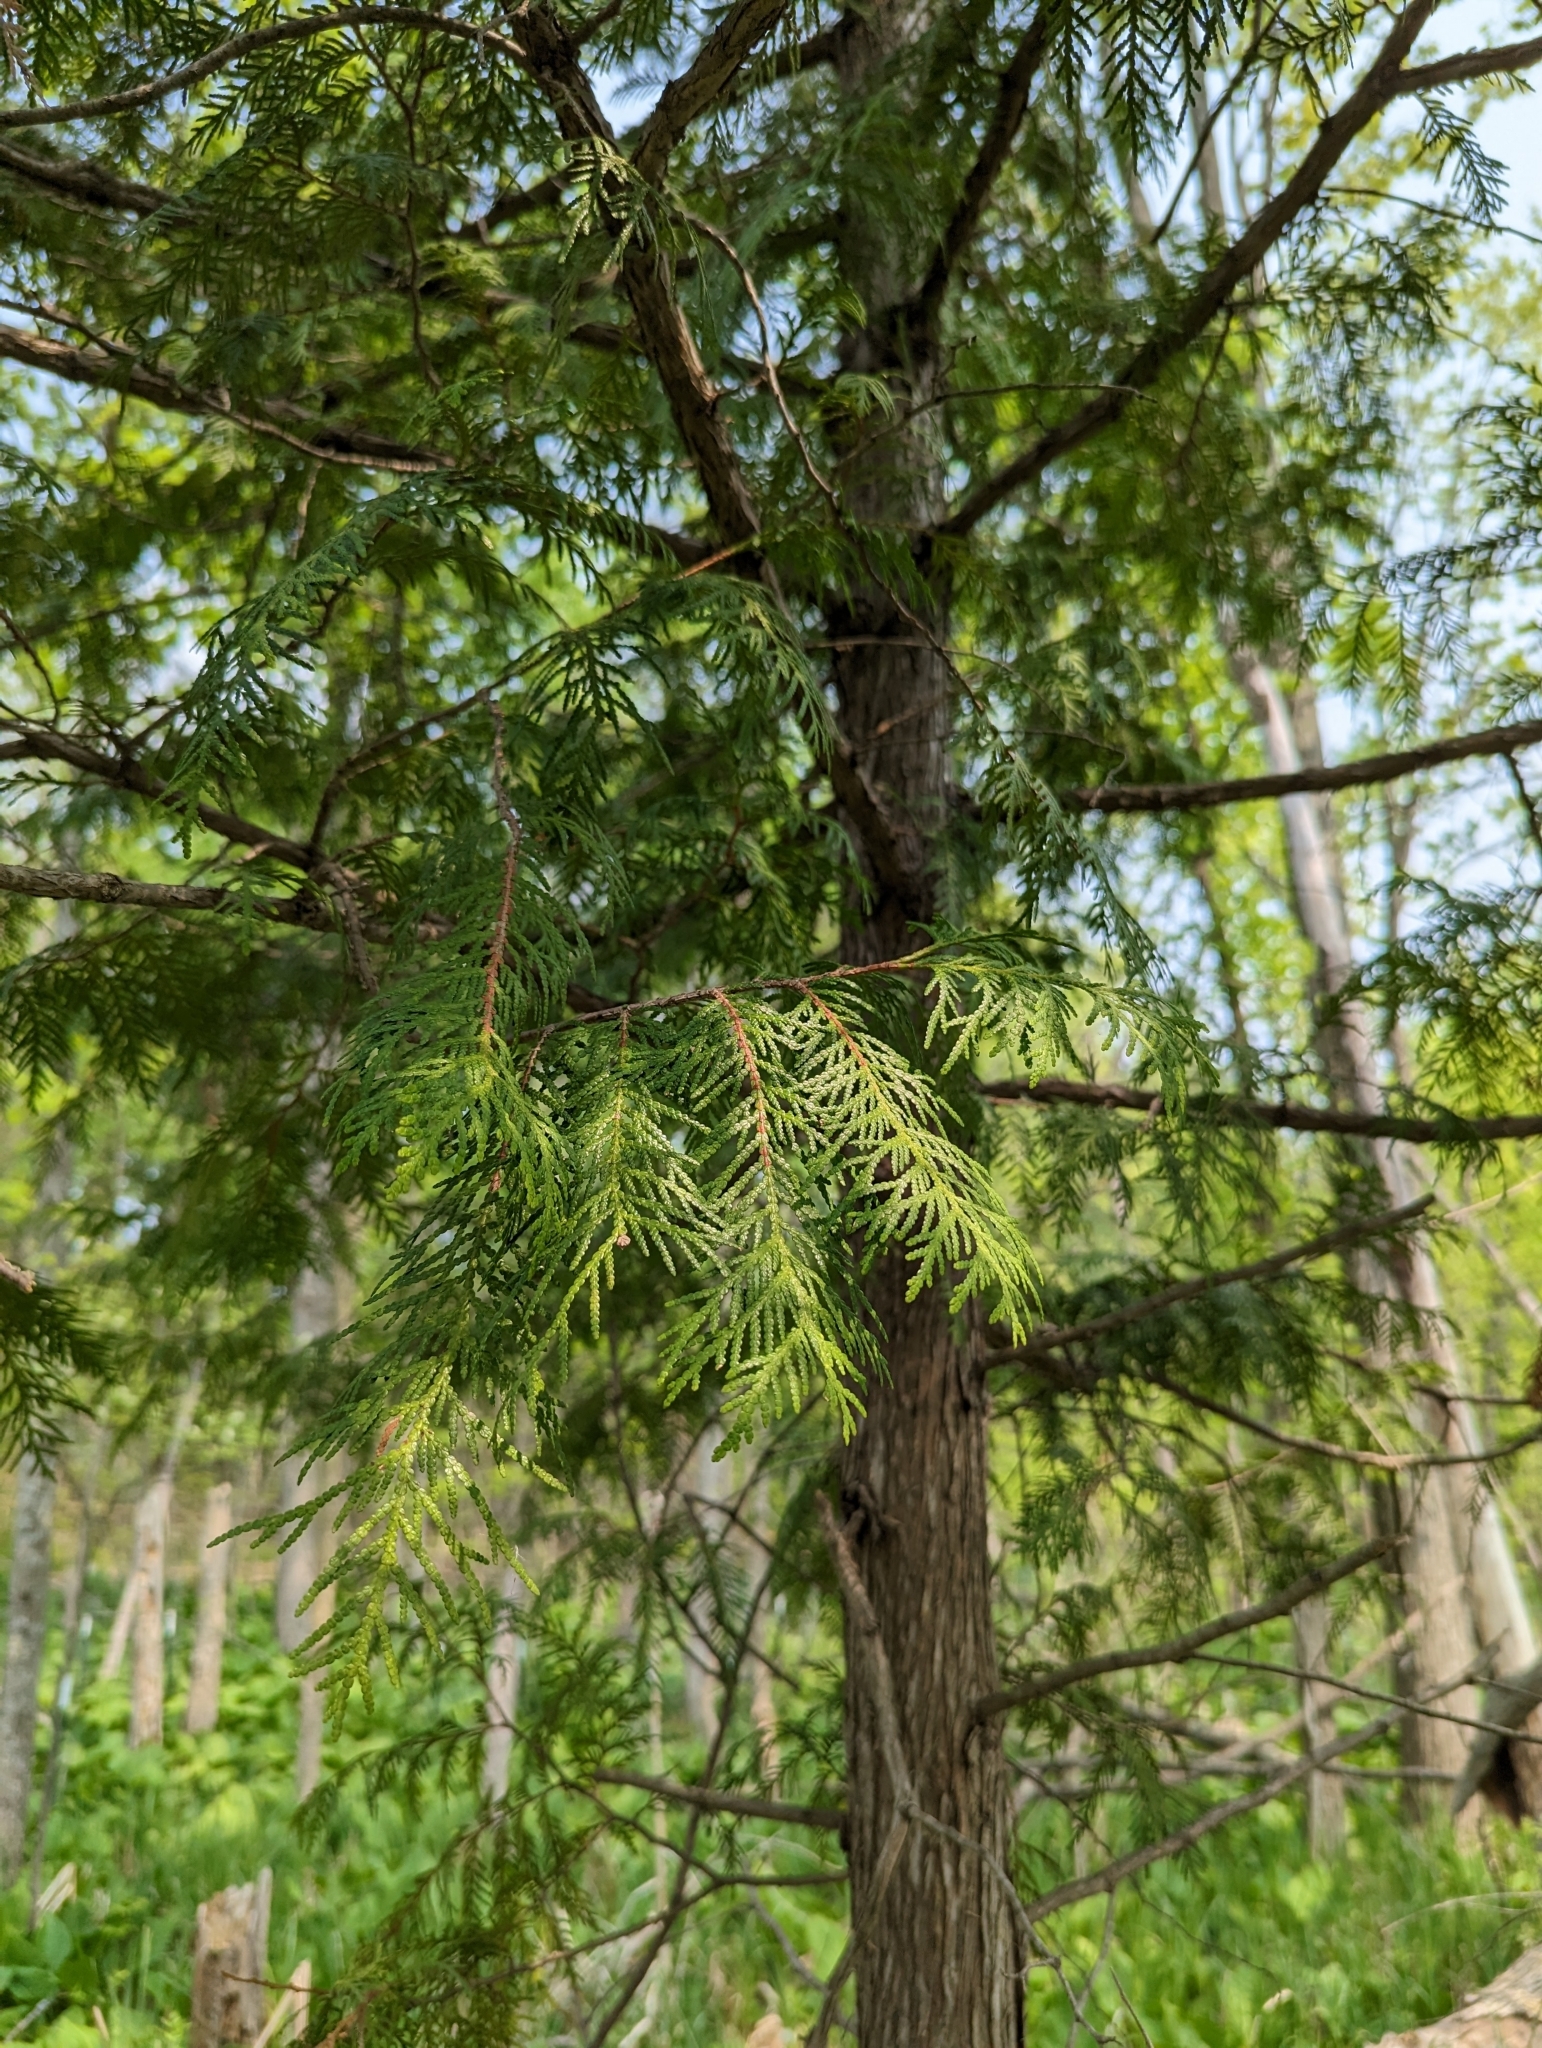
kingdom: Plantae
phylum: Tracheophyta
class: Pinopsida
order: Pinales
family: Cupressaceae
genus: Thuja
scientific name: Thuja occidentalis
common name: Northern white-cedar
